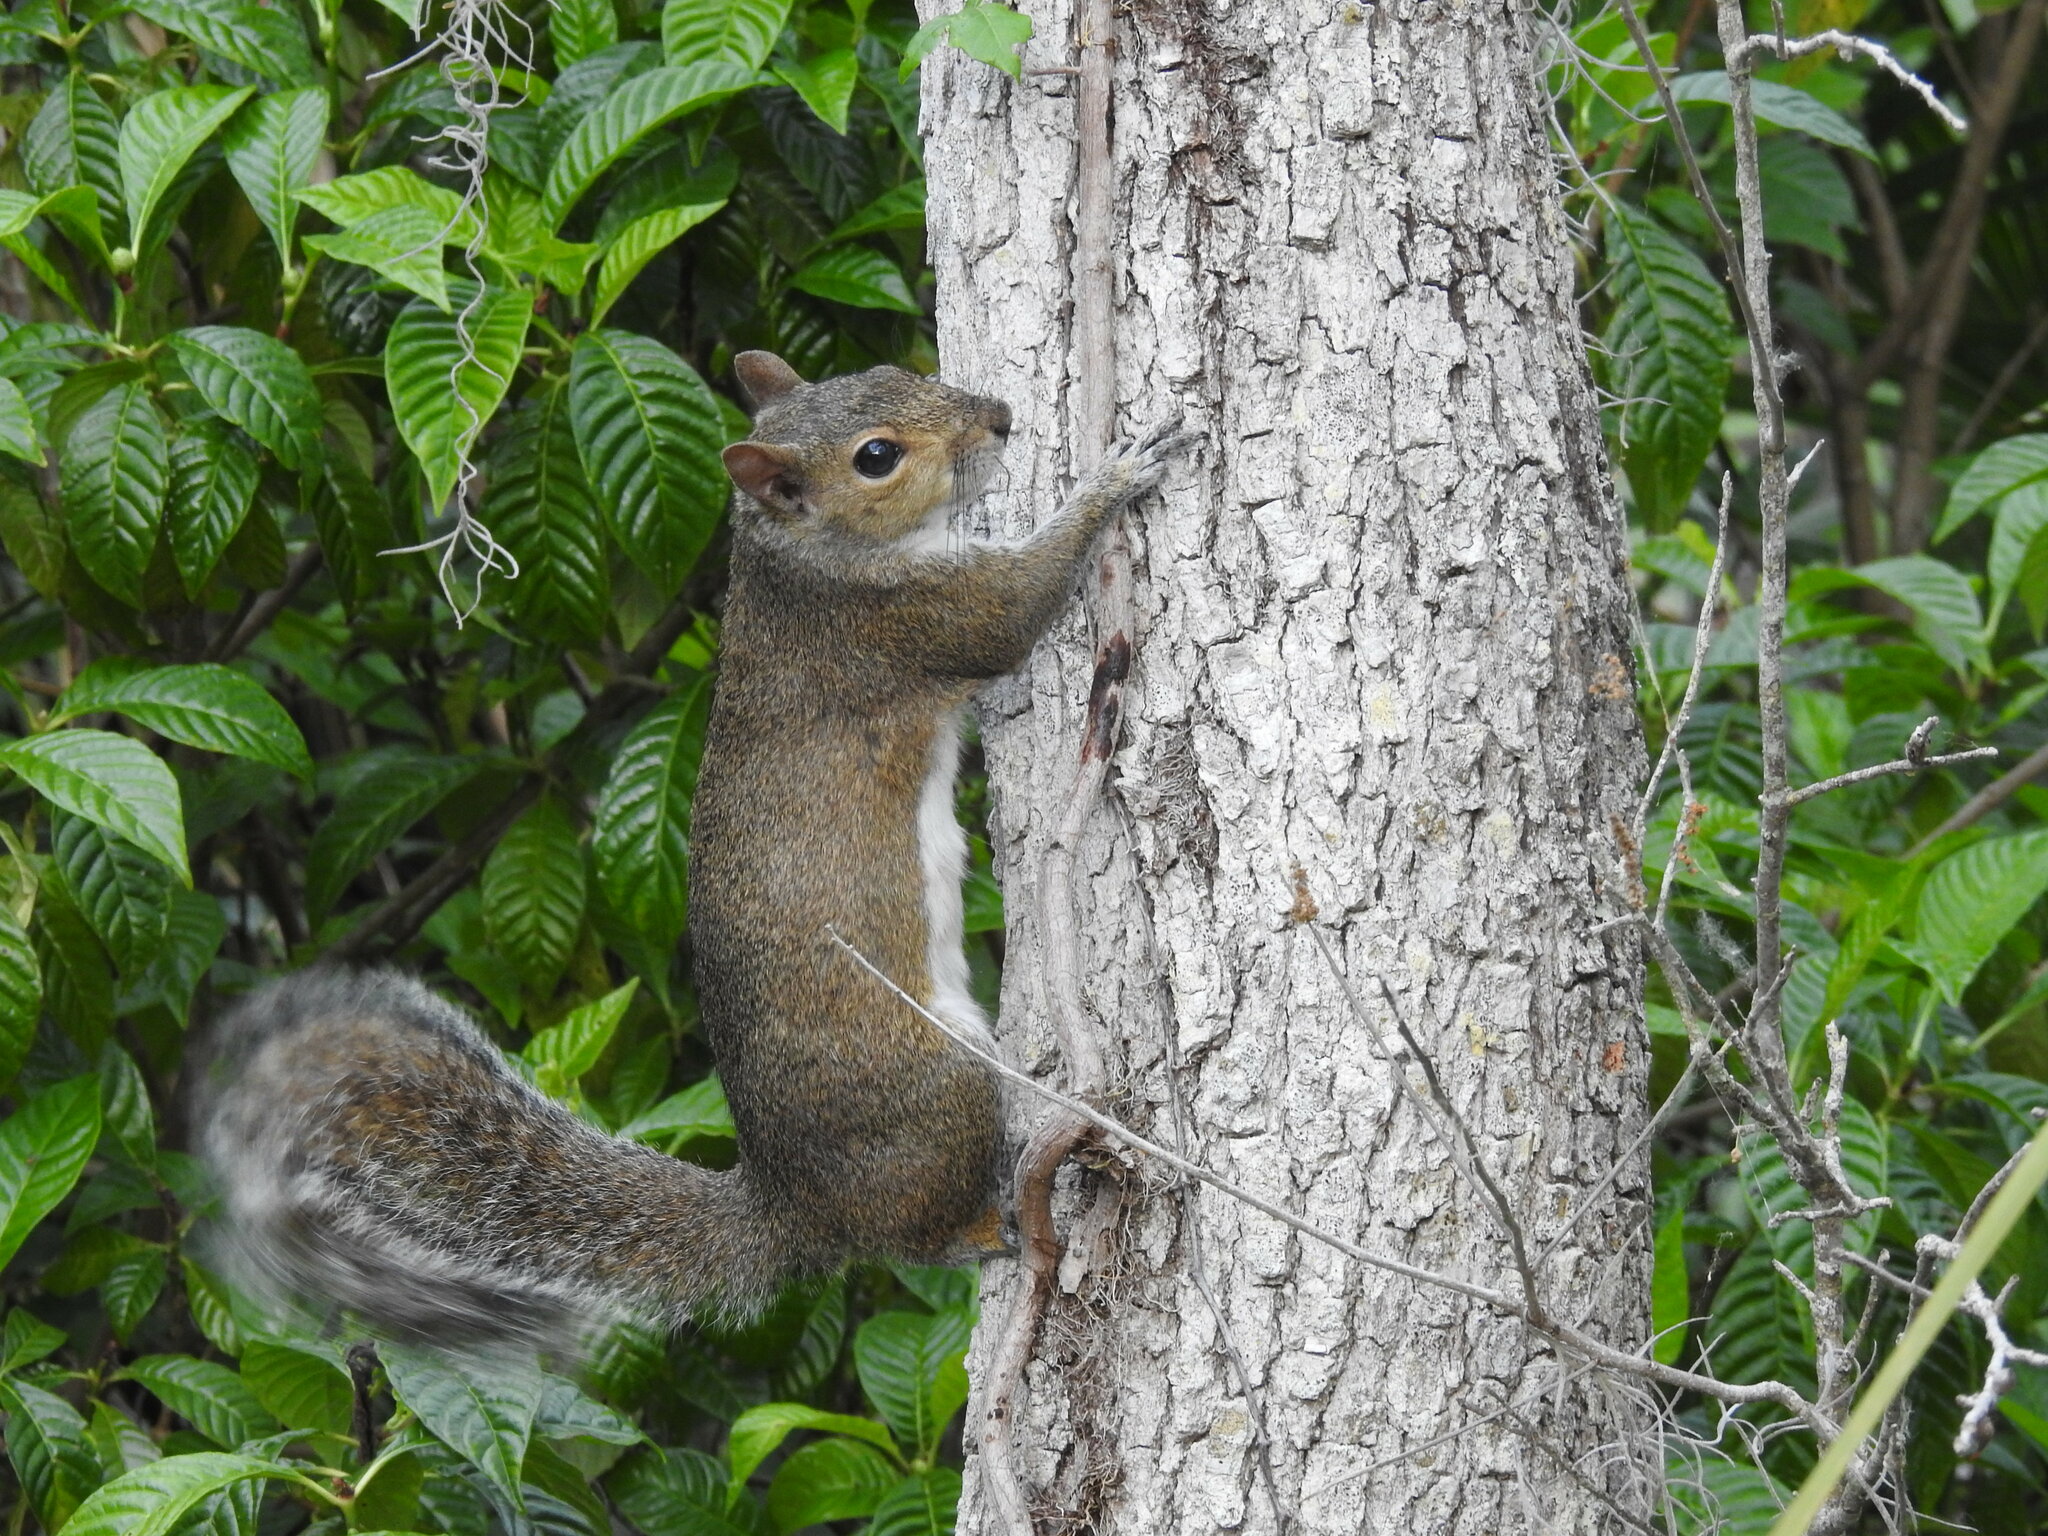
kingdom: Animalia
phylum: Chordata
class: Mammalia
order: Rodentia
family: Sciuridae
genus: Sciurus
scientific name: Sciurus carolinensis
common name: Eastern gray squirrel
